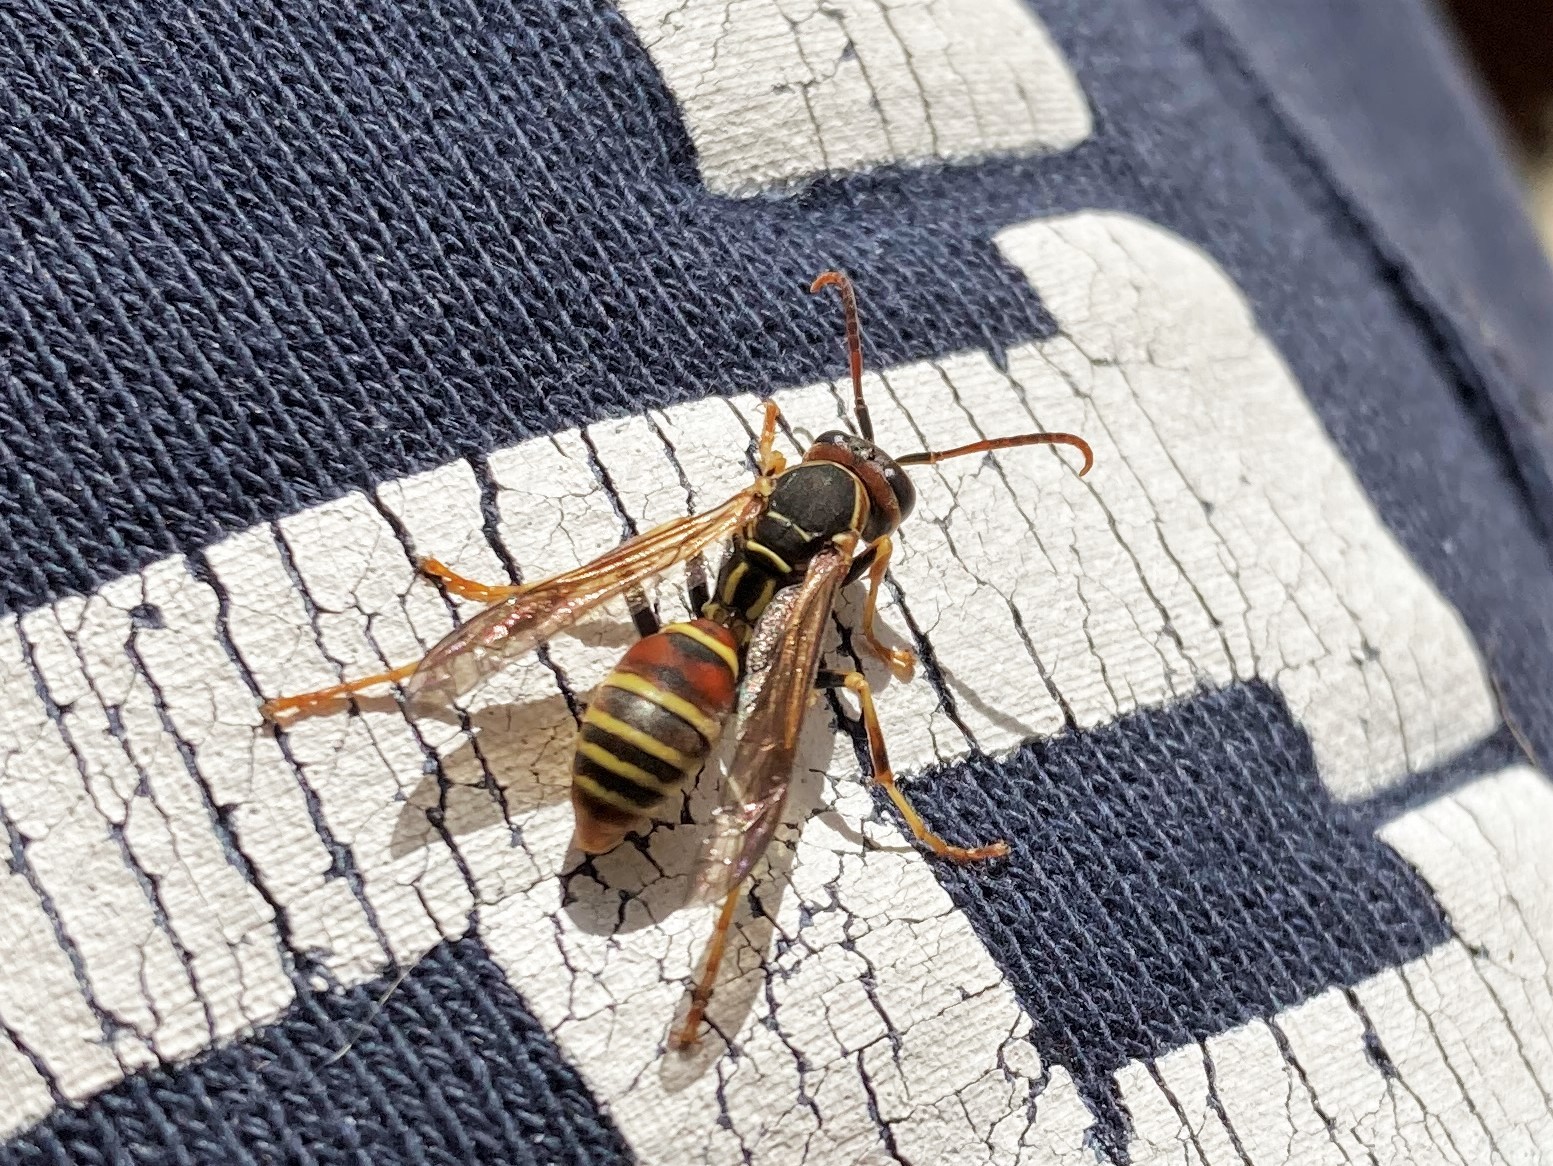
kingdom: Animalia
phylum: Arthropoda
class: Insecta
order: Hymenoptera
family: Eumenidae
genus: Polistes
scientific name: Polistes dorsalis
